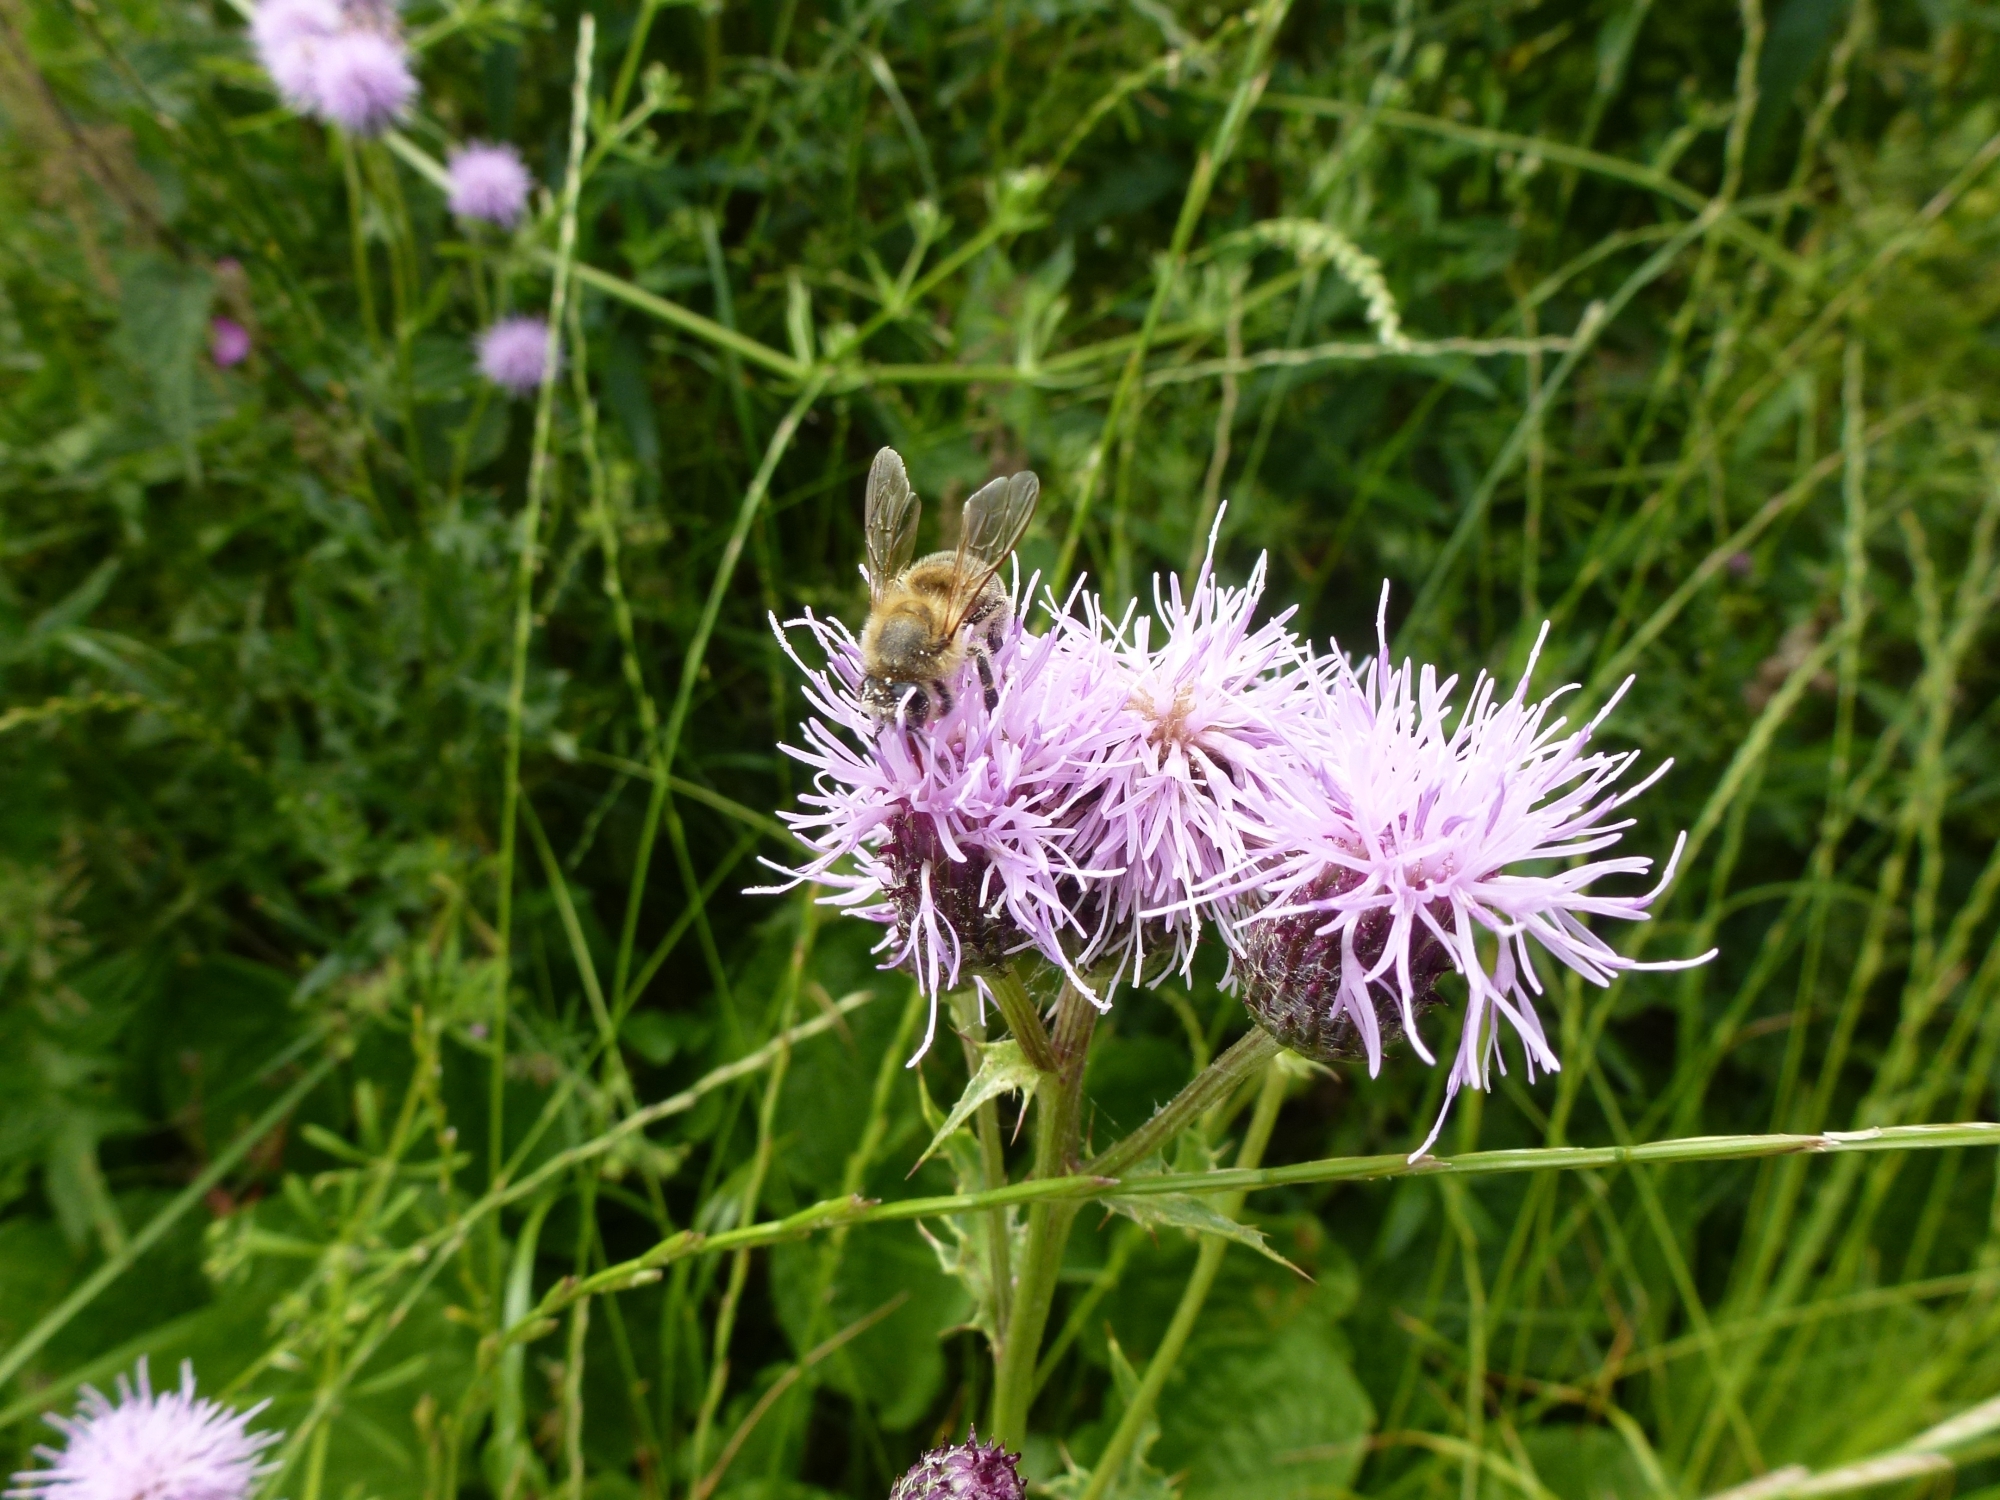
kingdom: Animalia
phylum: Arthropoda
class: Insecta
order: Hymenoptera
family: Apidae
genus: Apis
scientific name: Apis mellifera
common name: Honey bee
